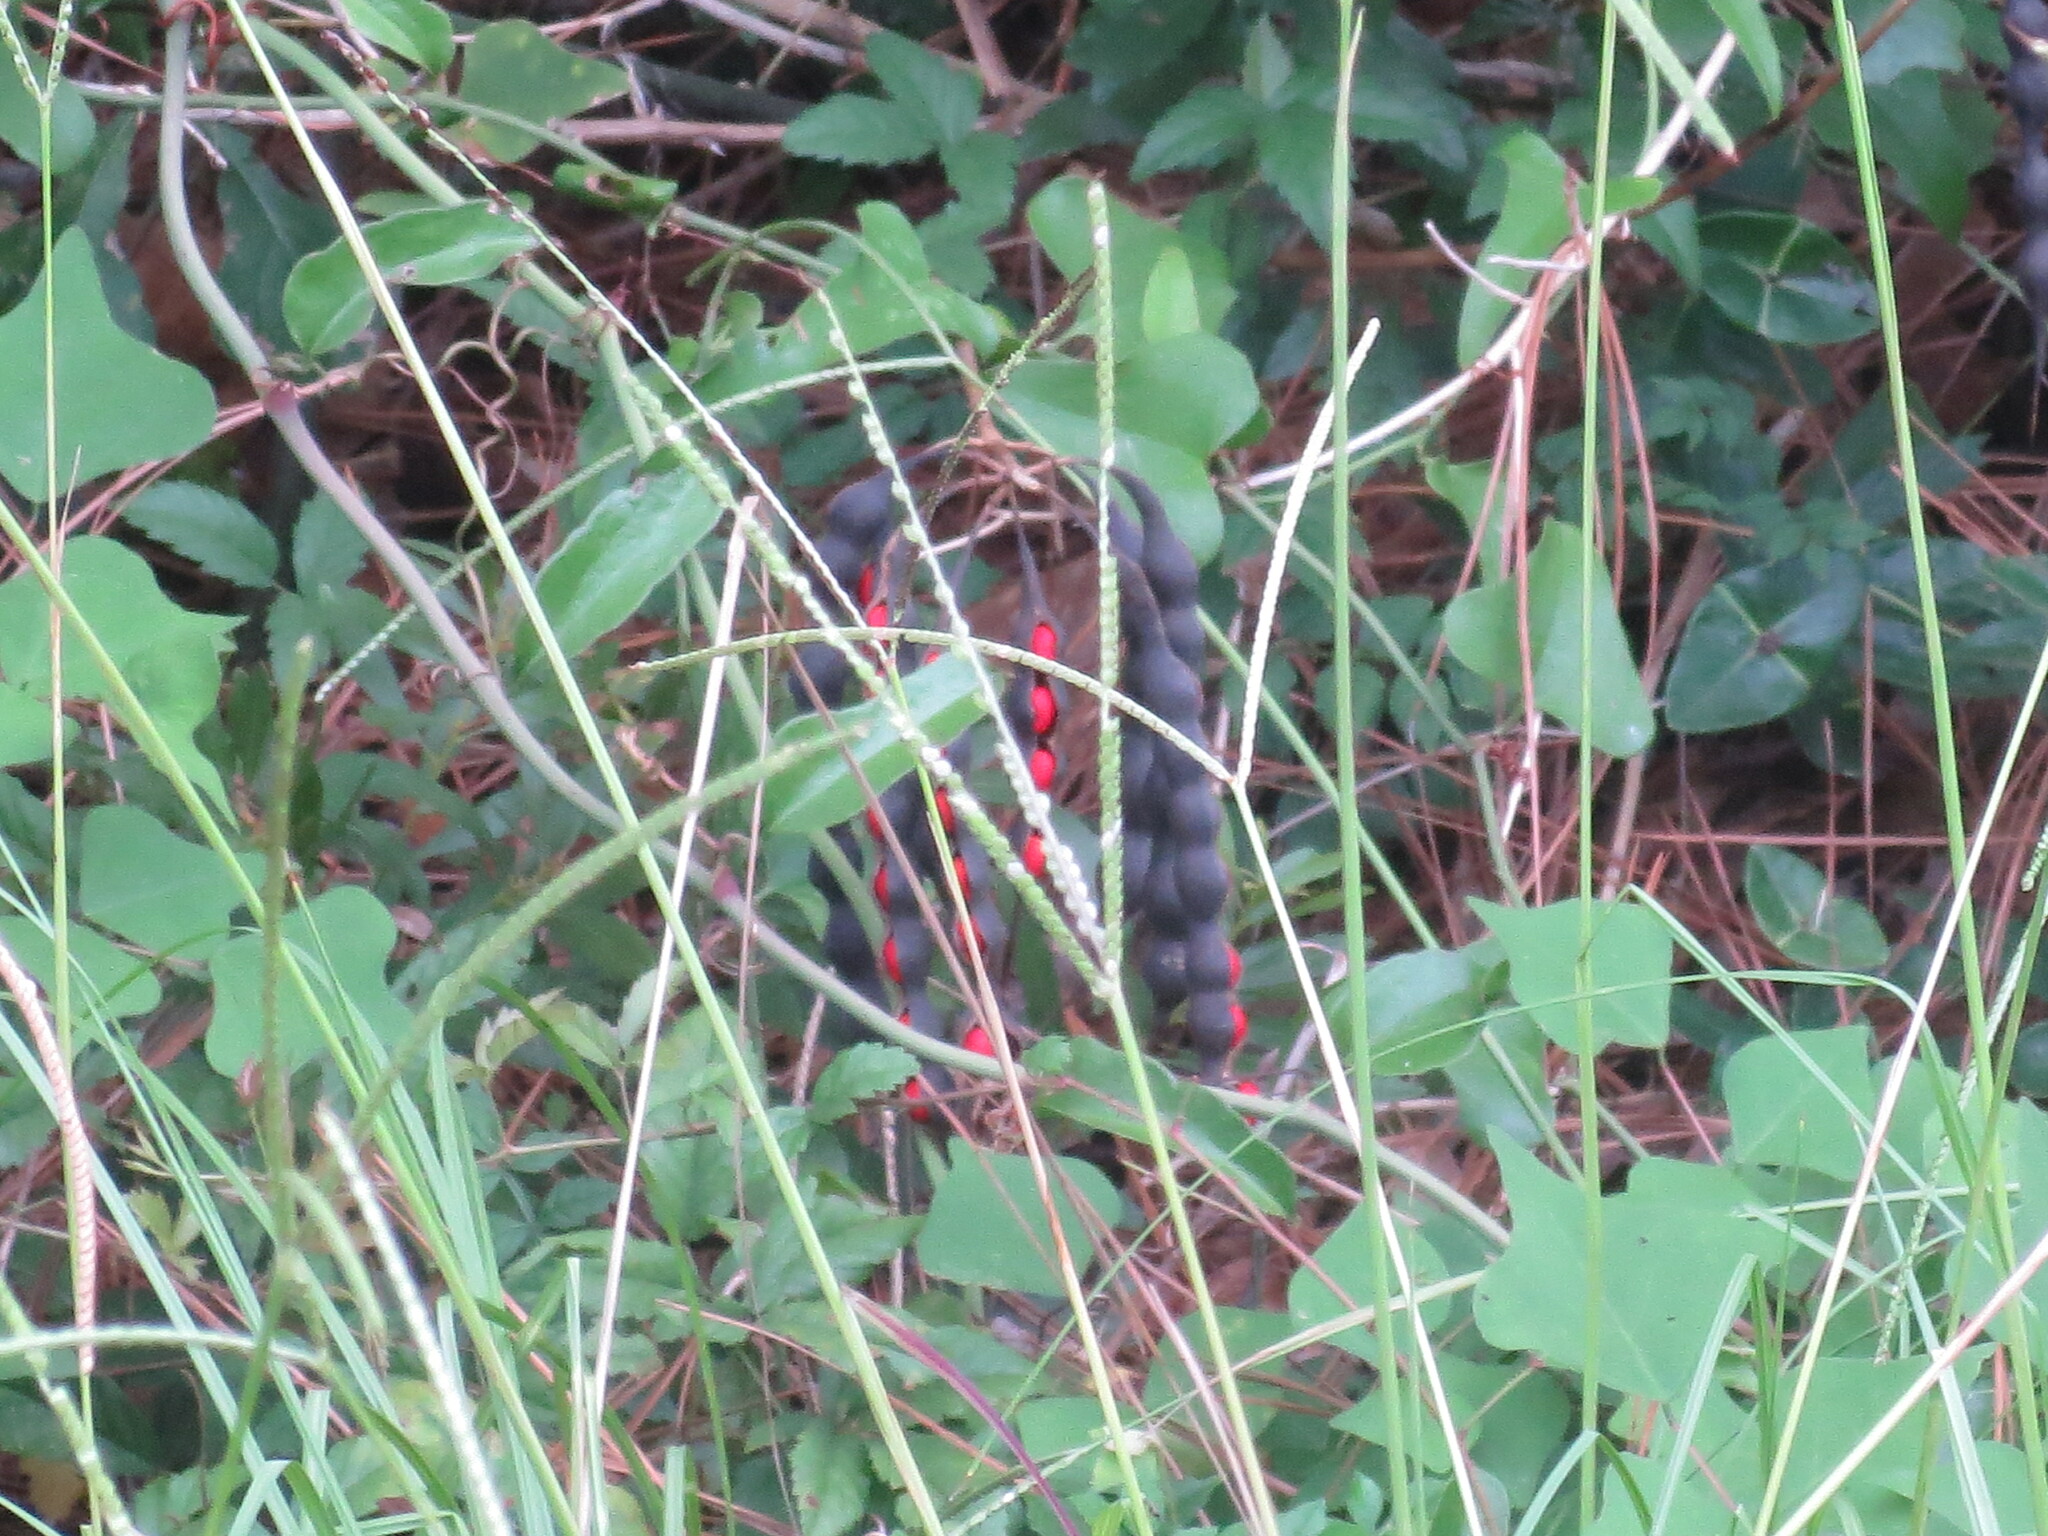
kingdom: Plantae
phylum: Tracheophyta
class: Magnoliopsida
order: Fabales
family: Fabaceae
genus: Erythrina
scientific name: Erythrina herbacea
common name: Coral-bean
